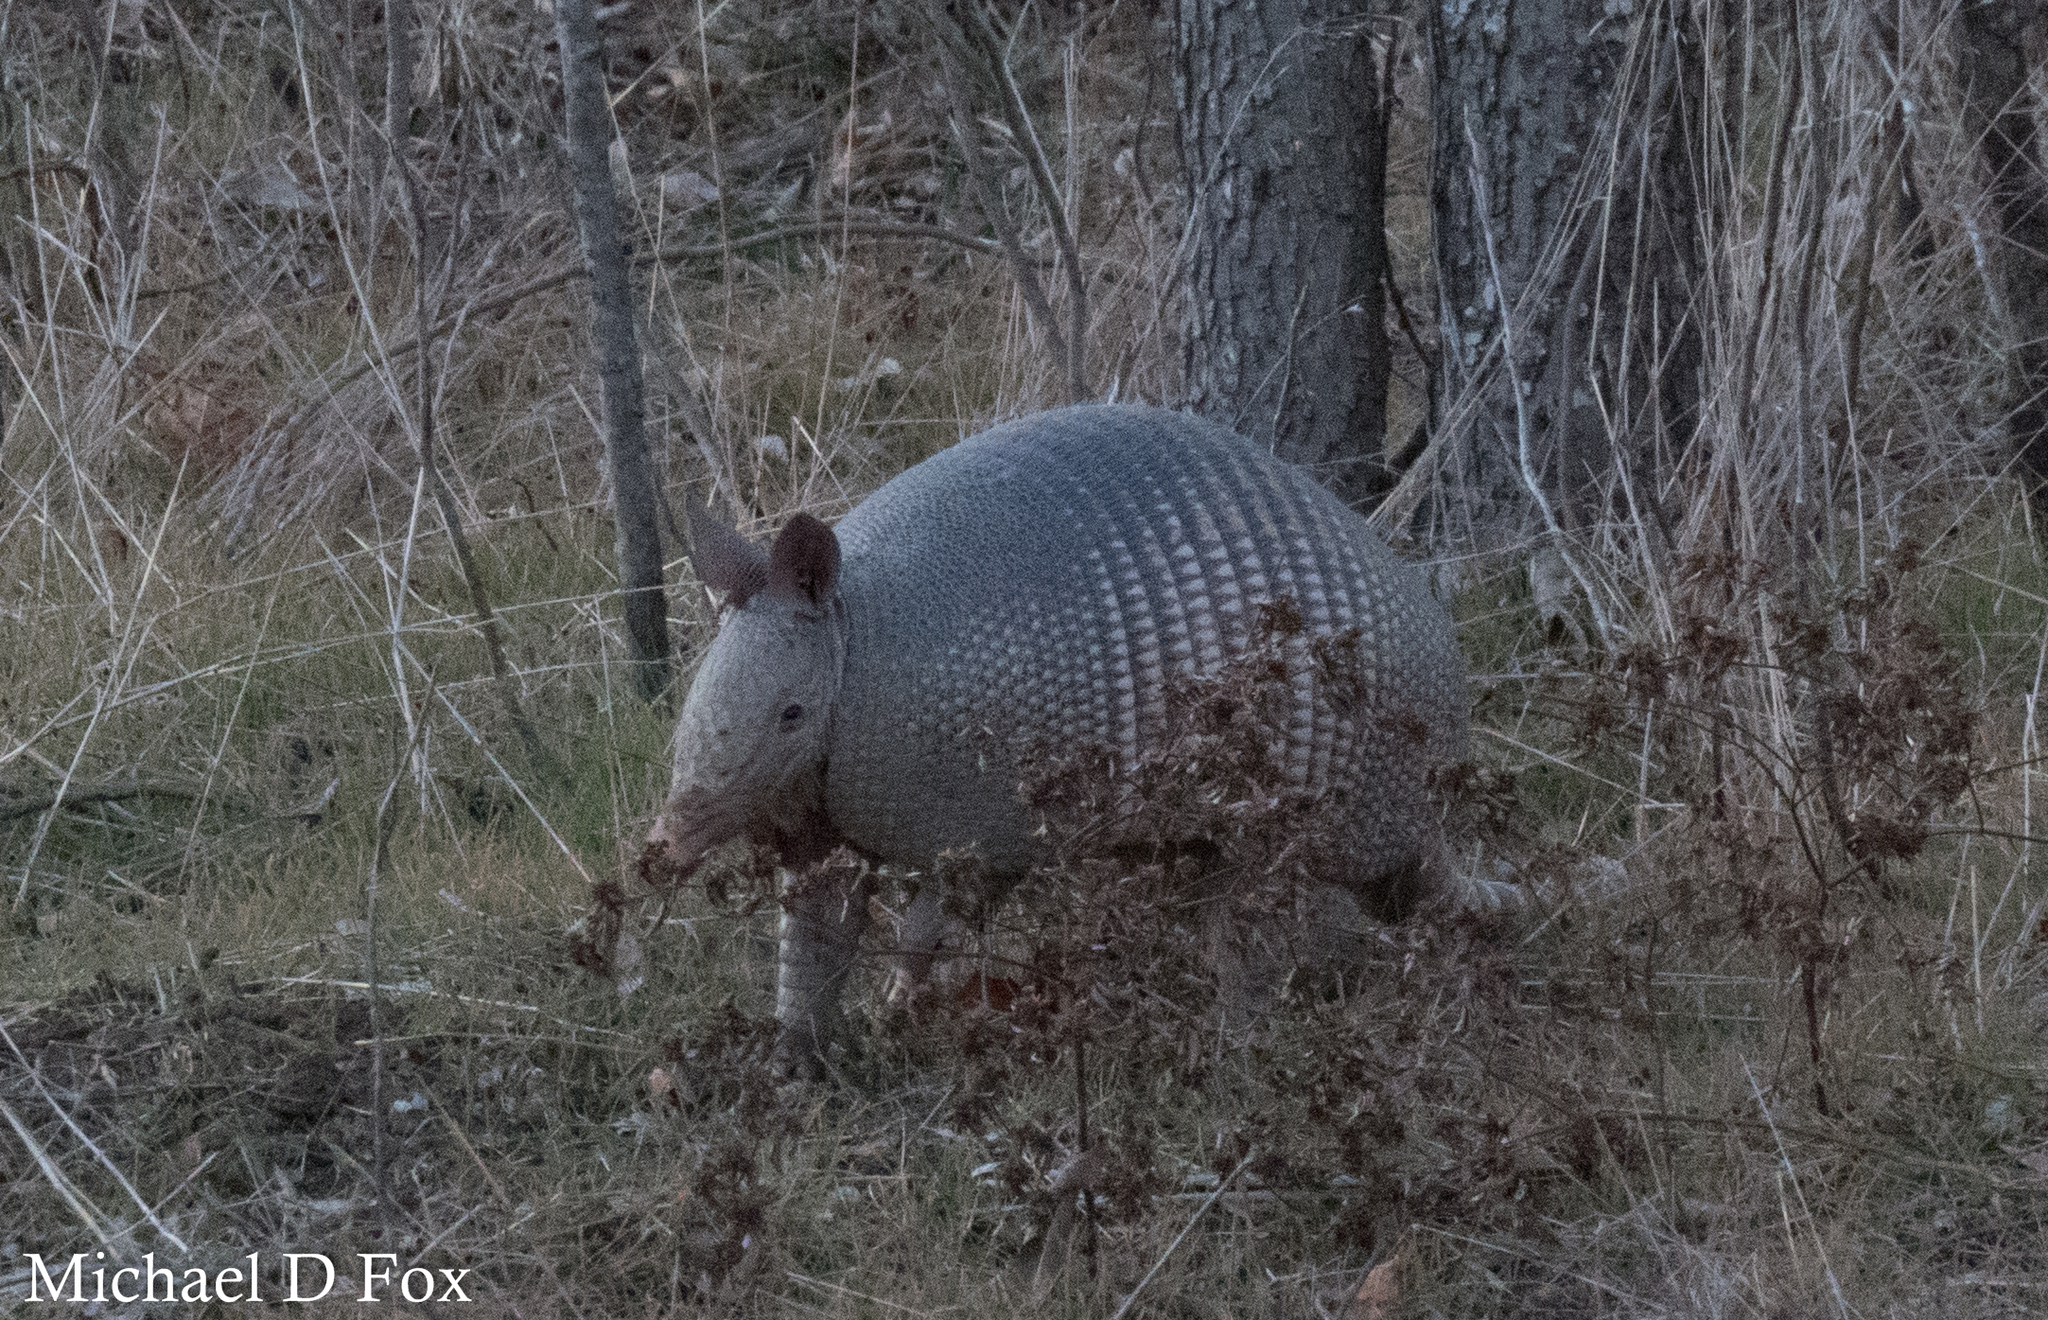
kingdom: Animalia
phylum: Chordata
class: Mammalia
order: Cingulata
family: Dasypodidae
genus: Dasypus
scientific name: Dasypus novemcinctus
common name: Nine-banded armadillo
